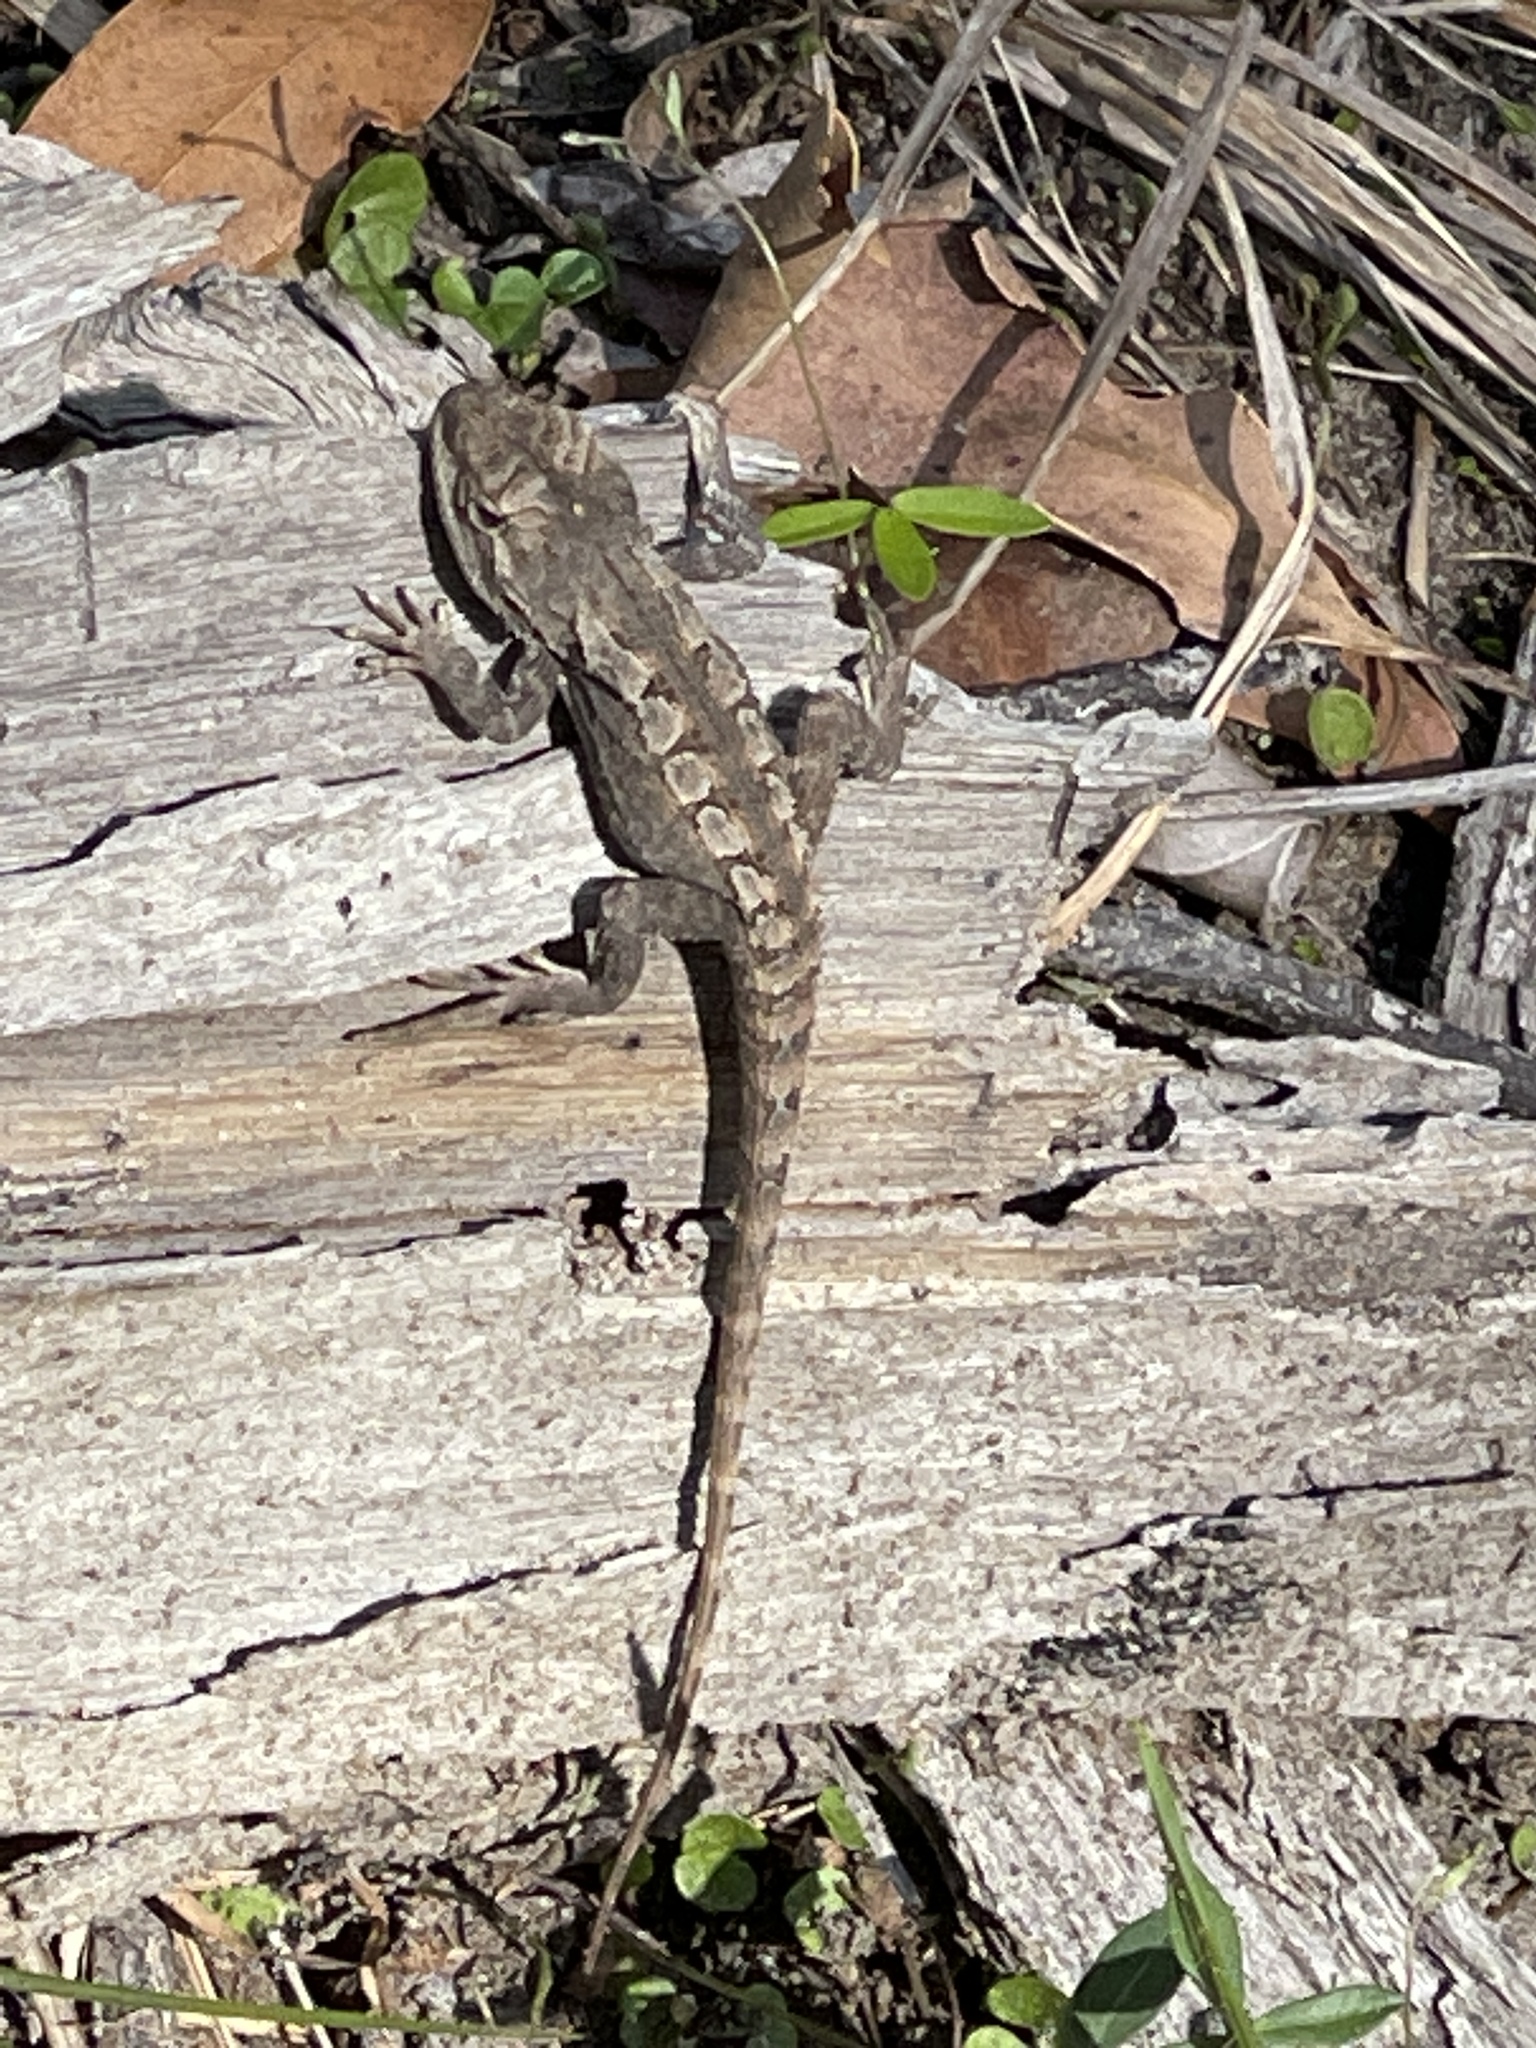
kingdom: Animalia
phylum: Chordata
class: Squamata
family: Agamidae
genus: Amphibolurus
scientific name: Amphibolurus muricatus
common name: Jacky lizard
